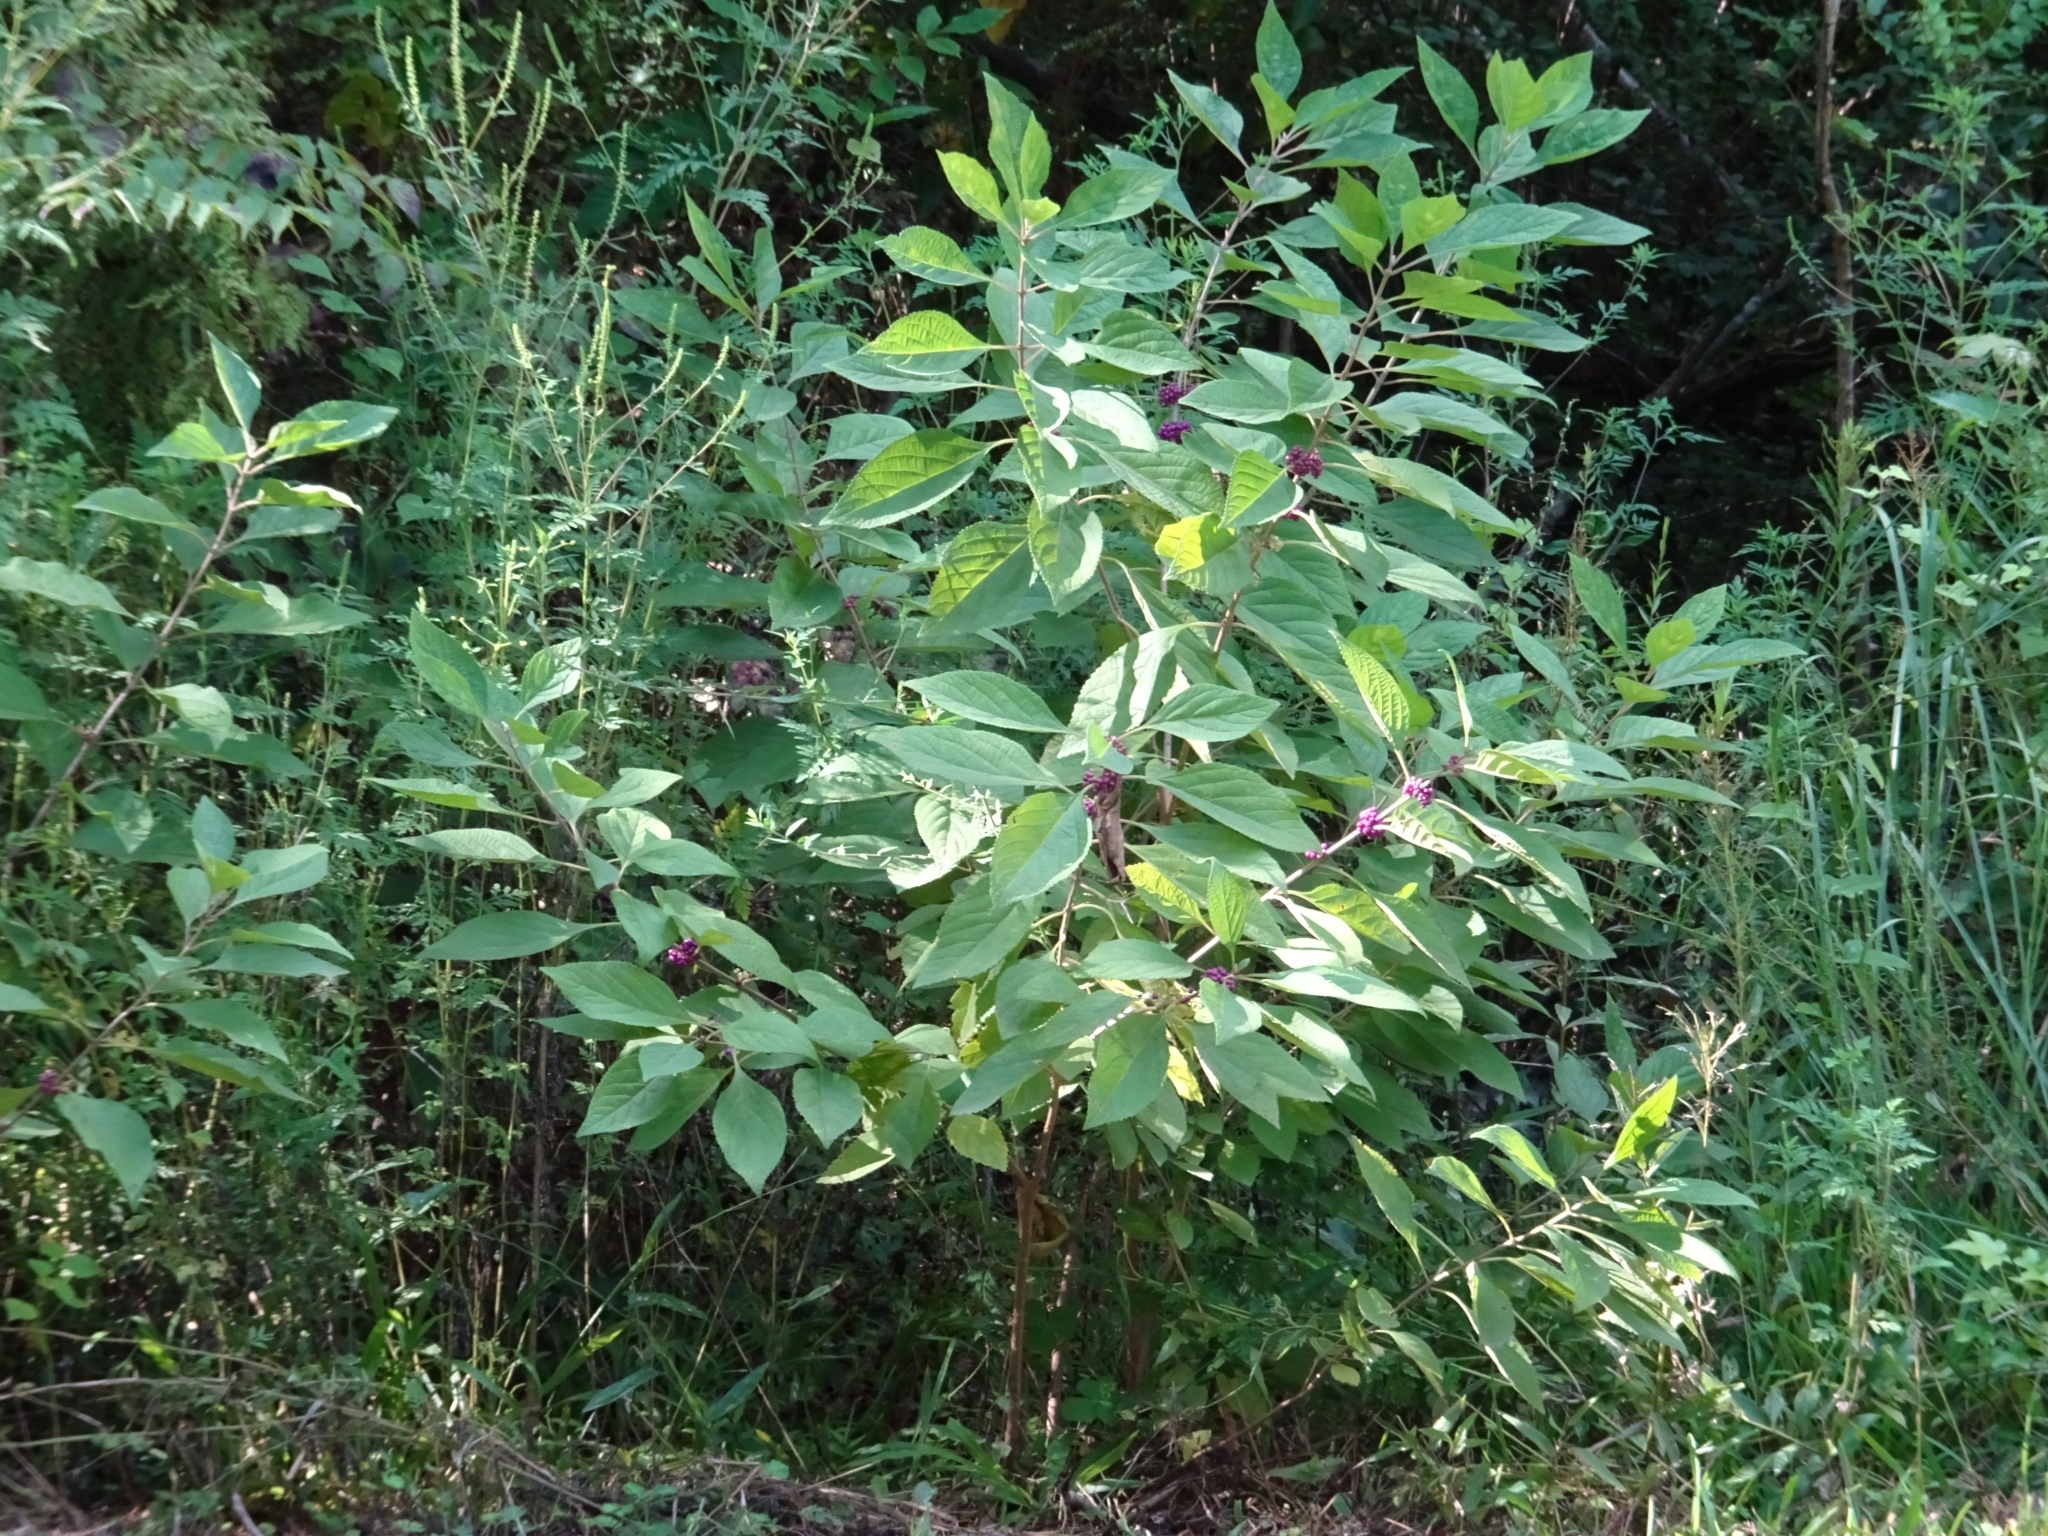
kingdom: Animalia
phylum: Chordata
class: Mammalia
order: Carnivora
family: Procyonidae
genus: Procyon
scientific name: Procyon lotor
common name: Raccoon
